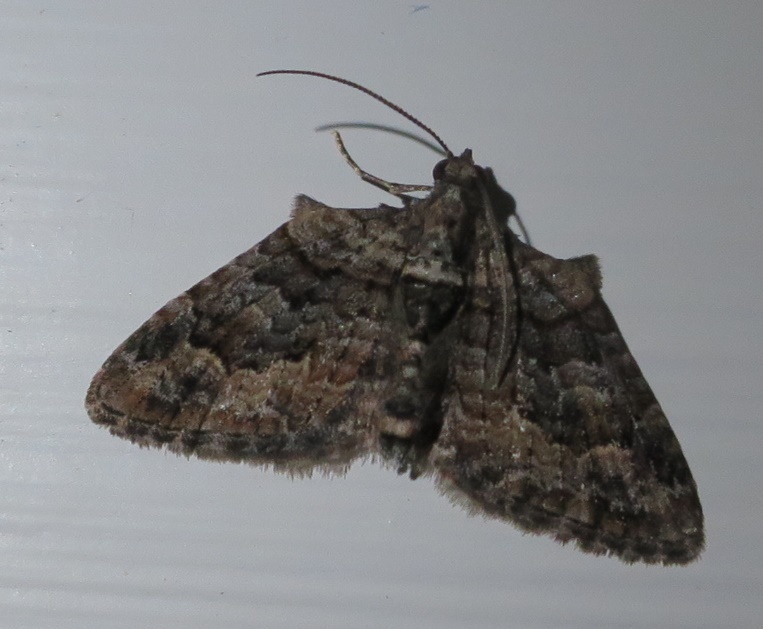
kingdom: Animalia
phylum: Arthropoda
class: Insecta
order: Lepidoptera
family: Geometridae
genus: Phrissogonus
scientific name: Phrissogonus laticostata
